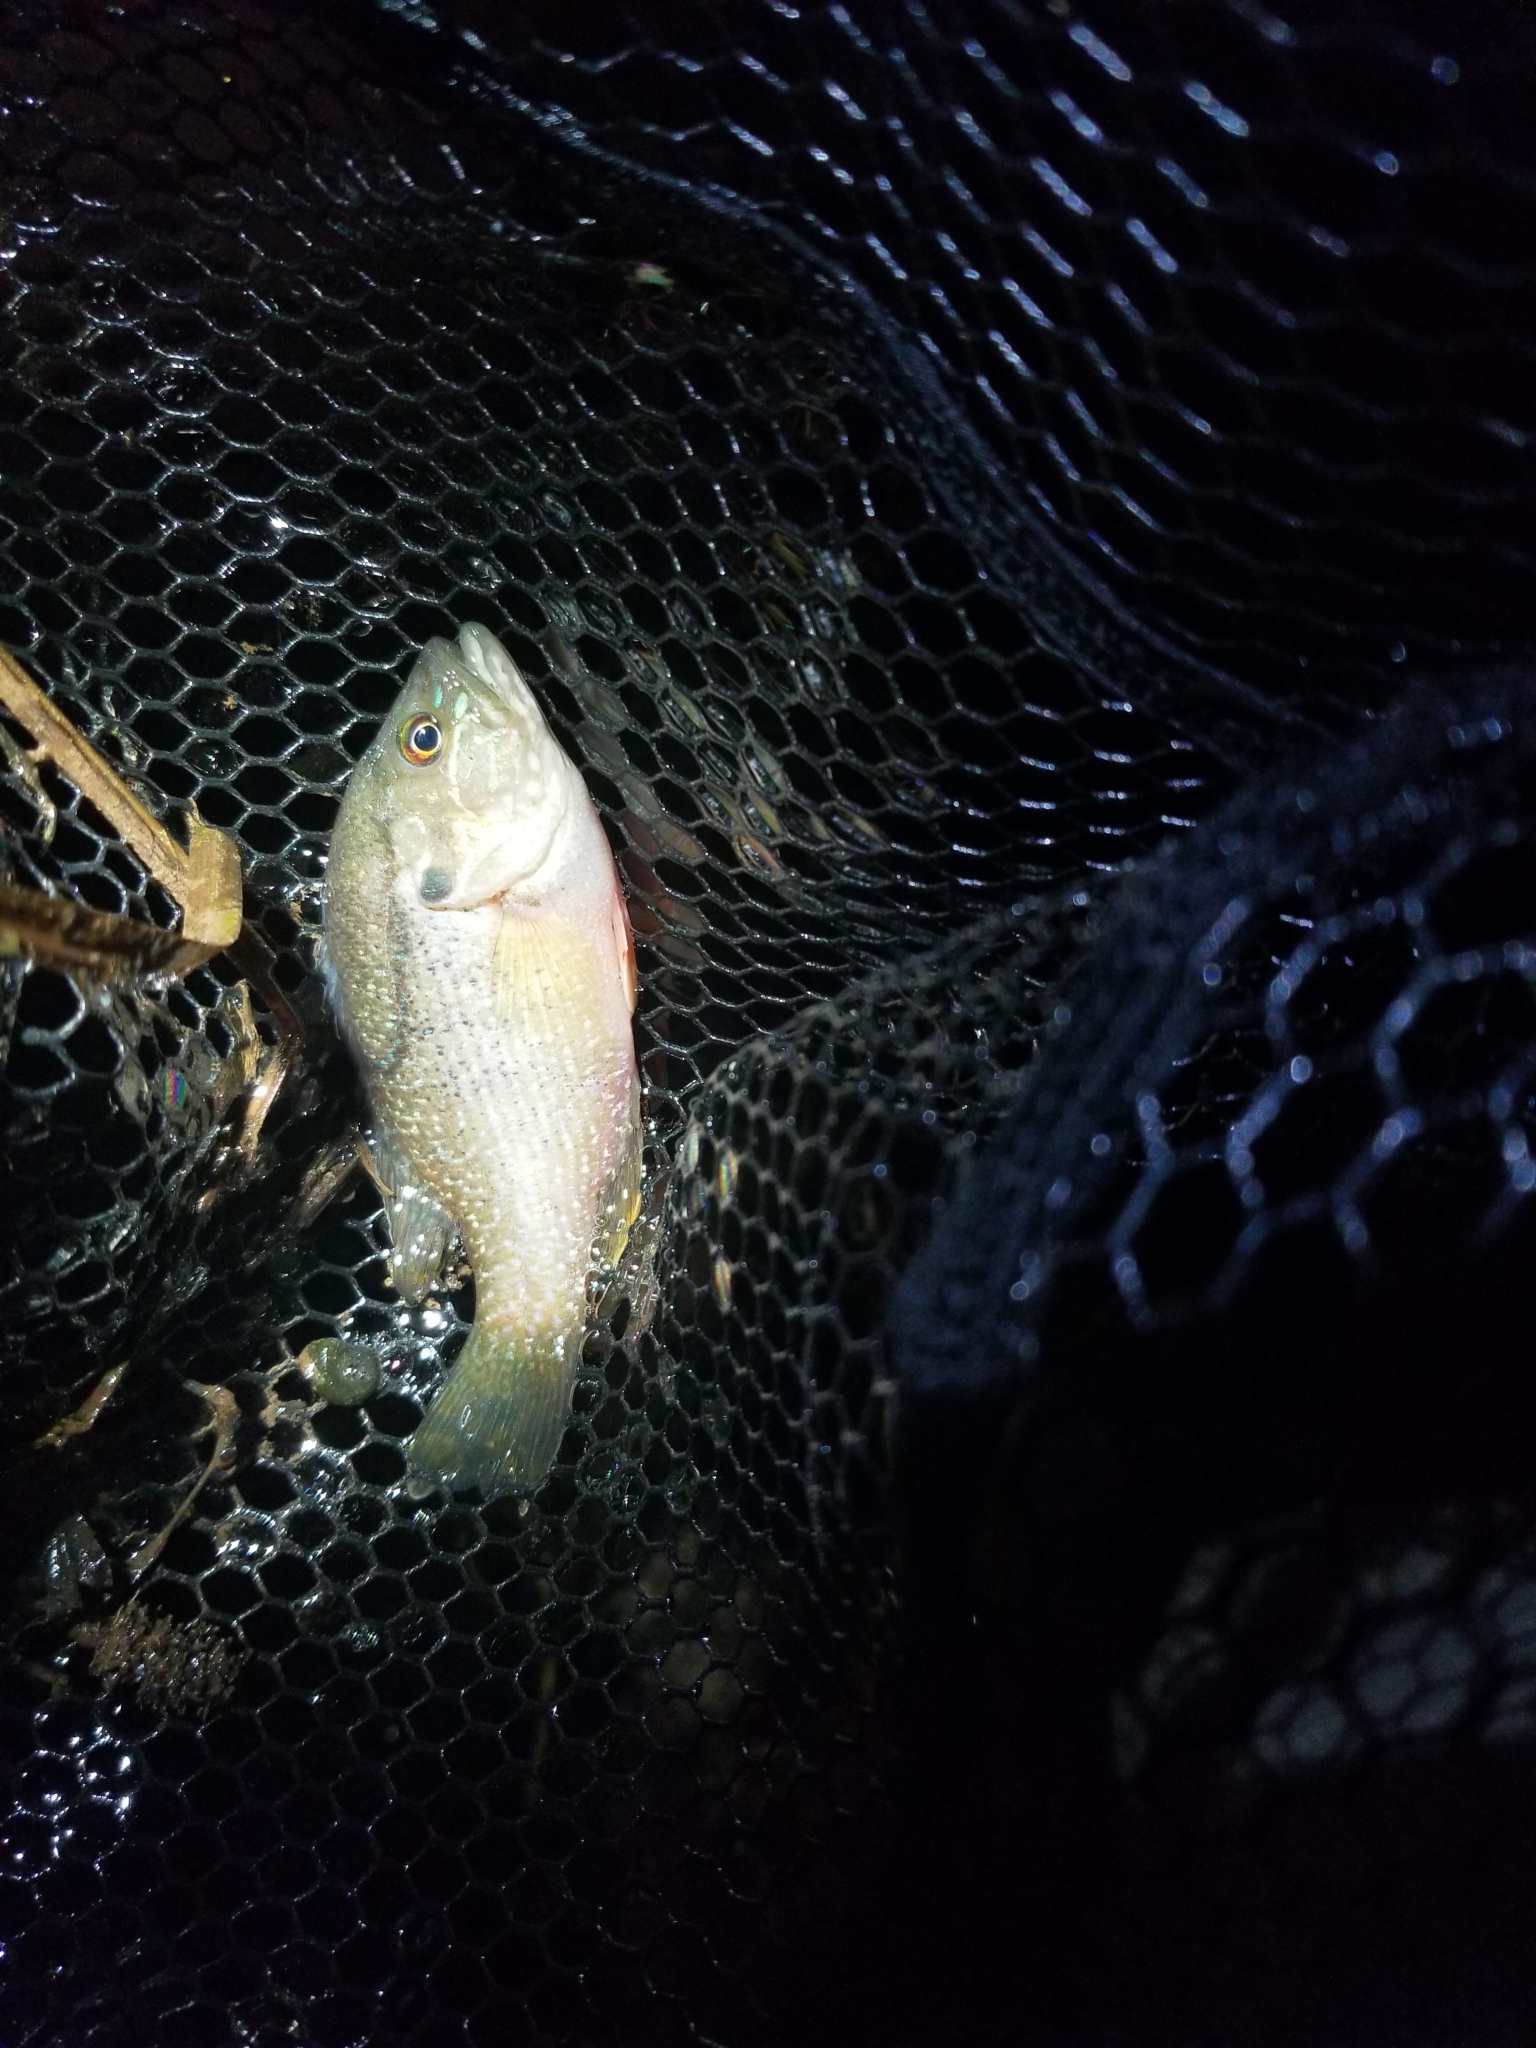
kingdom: Animalia
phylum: Chordata
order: Perciformes
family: Centrarchidae
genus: Lepomis
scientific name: Lepomis cyanellus
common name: Green sunfish
